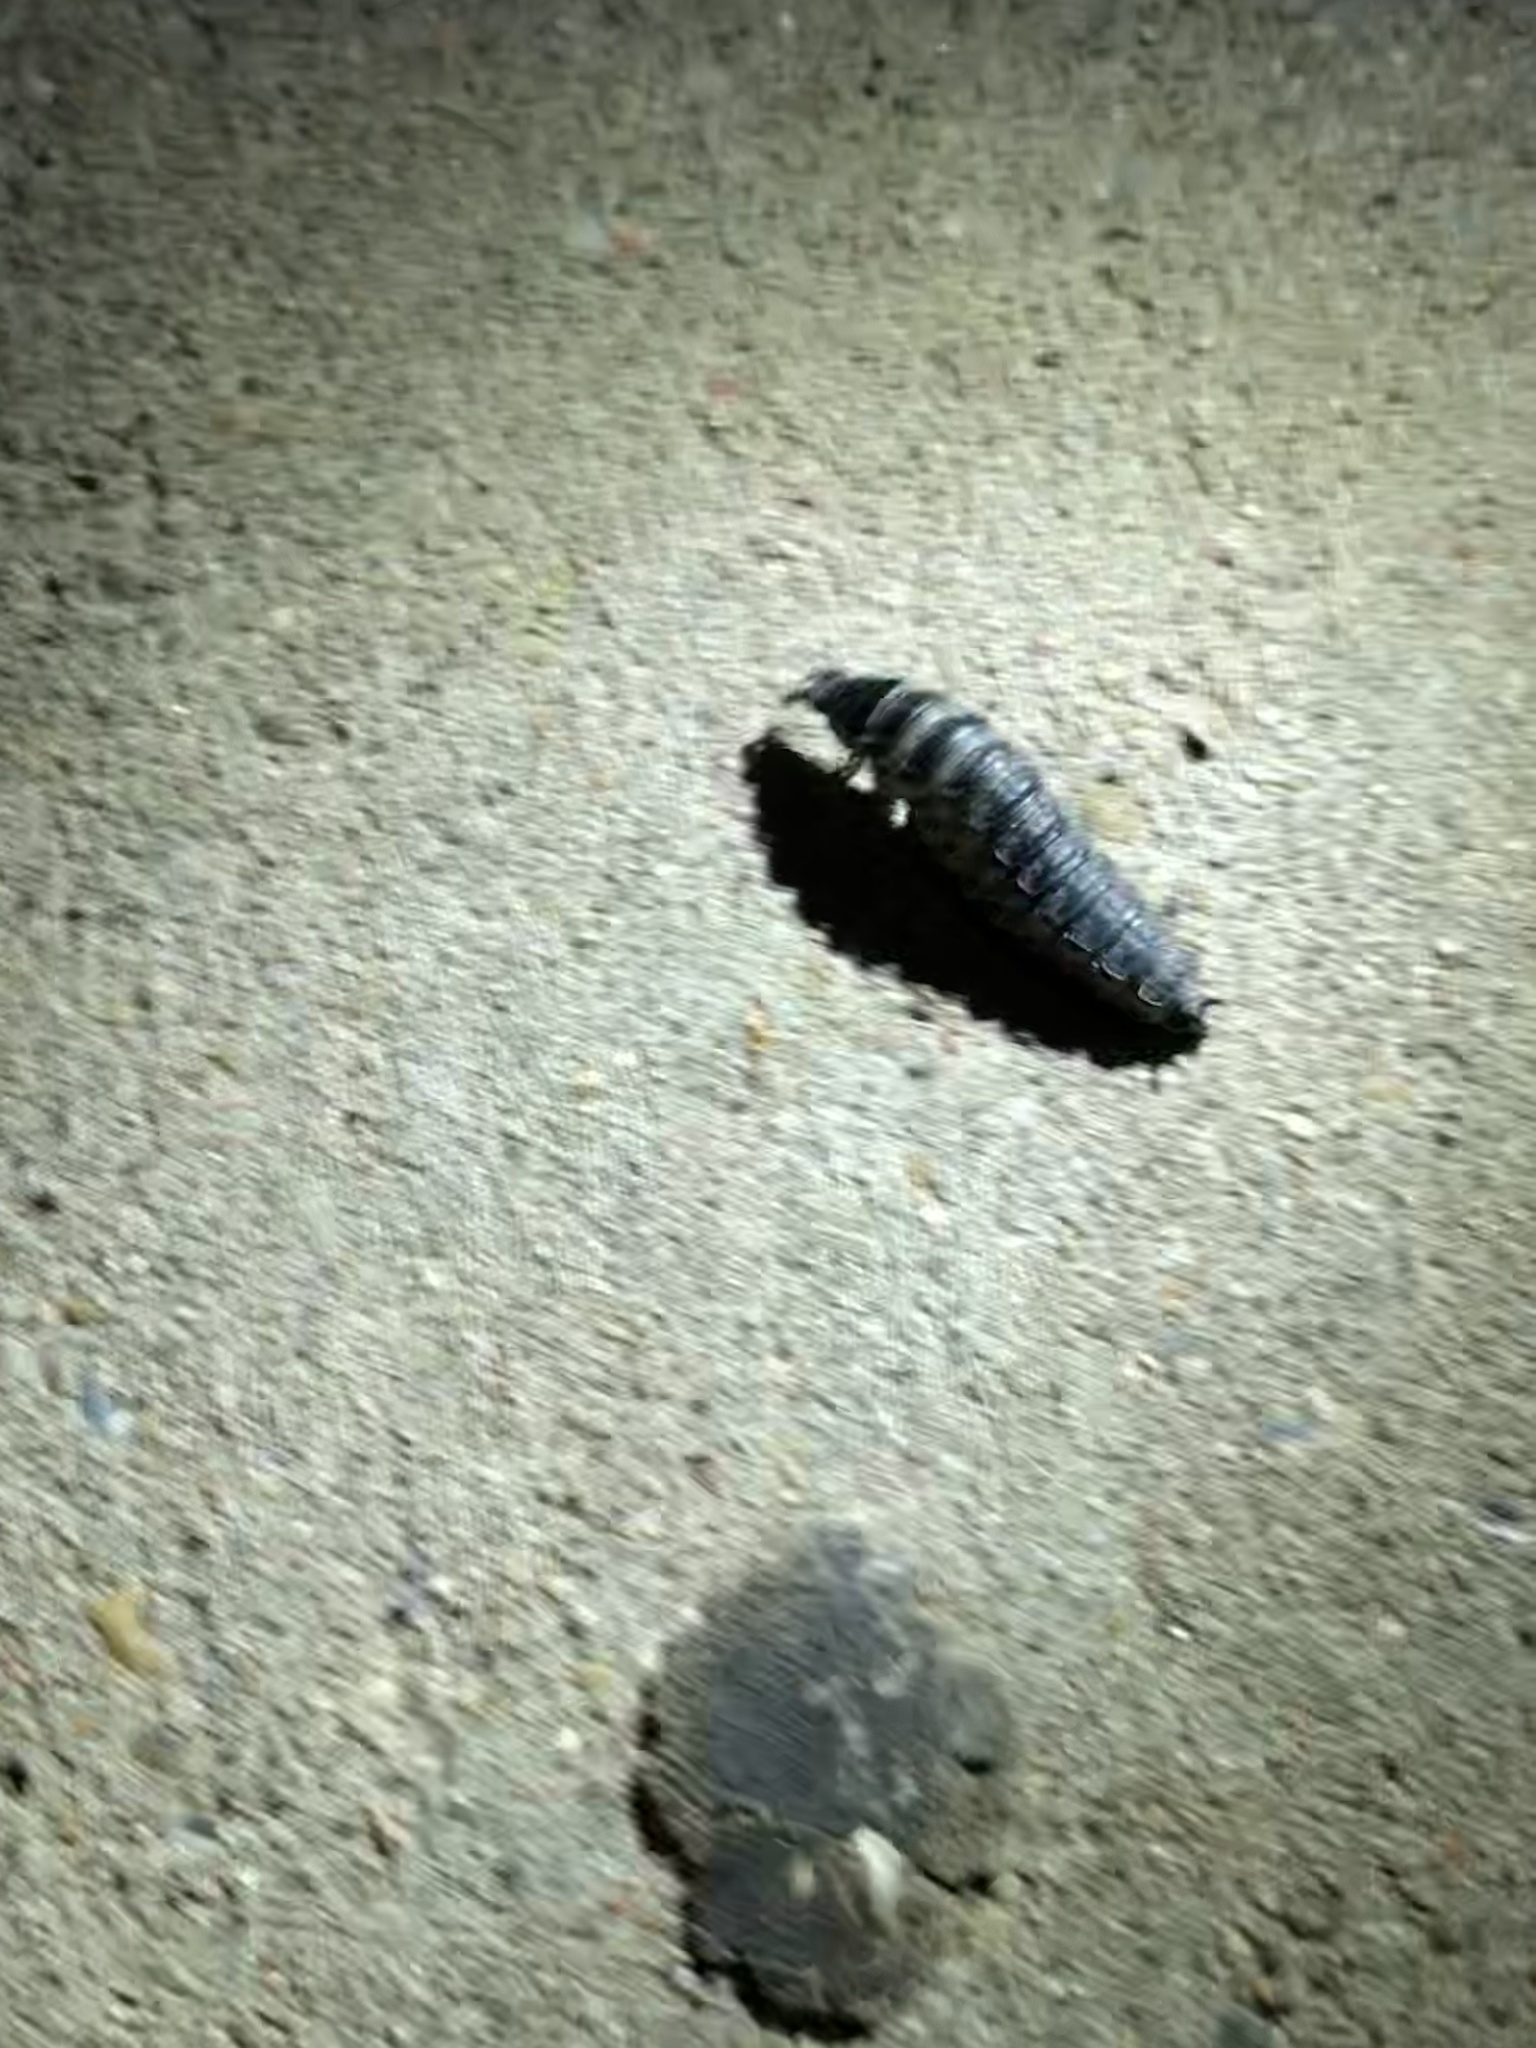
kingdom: Animalia
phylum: Arthropoda
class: Insecta
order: Coleoptera
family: Carabidae
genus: Calosoma
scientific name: Calosoma
